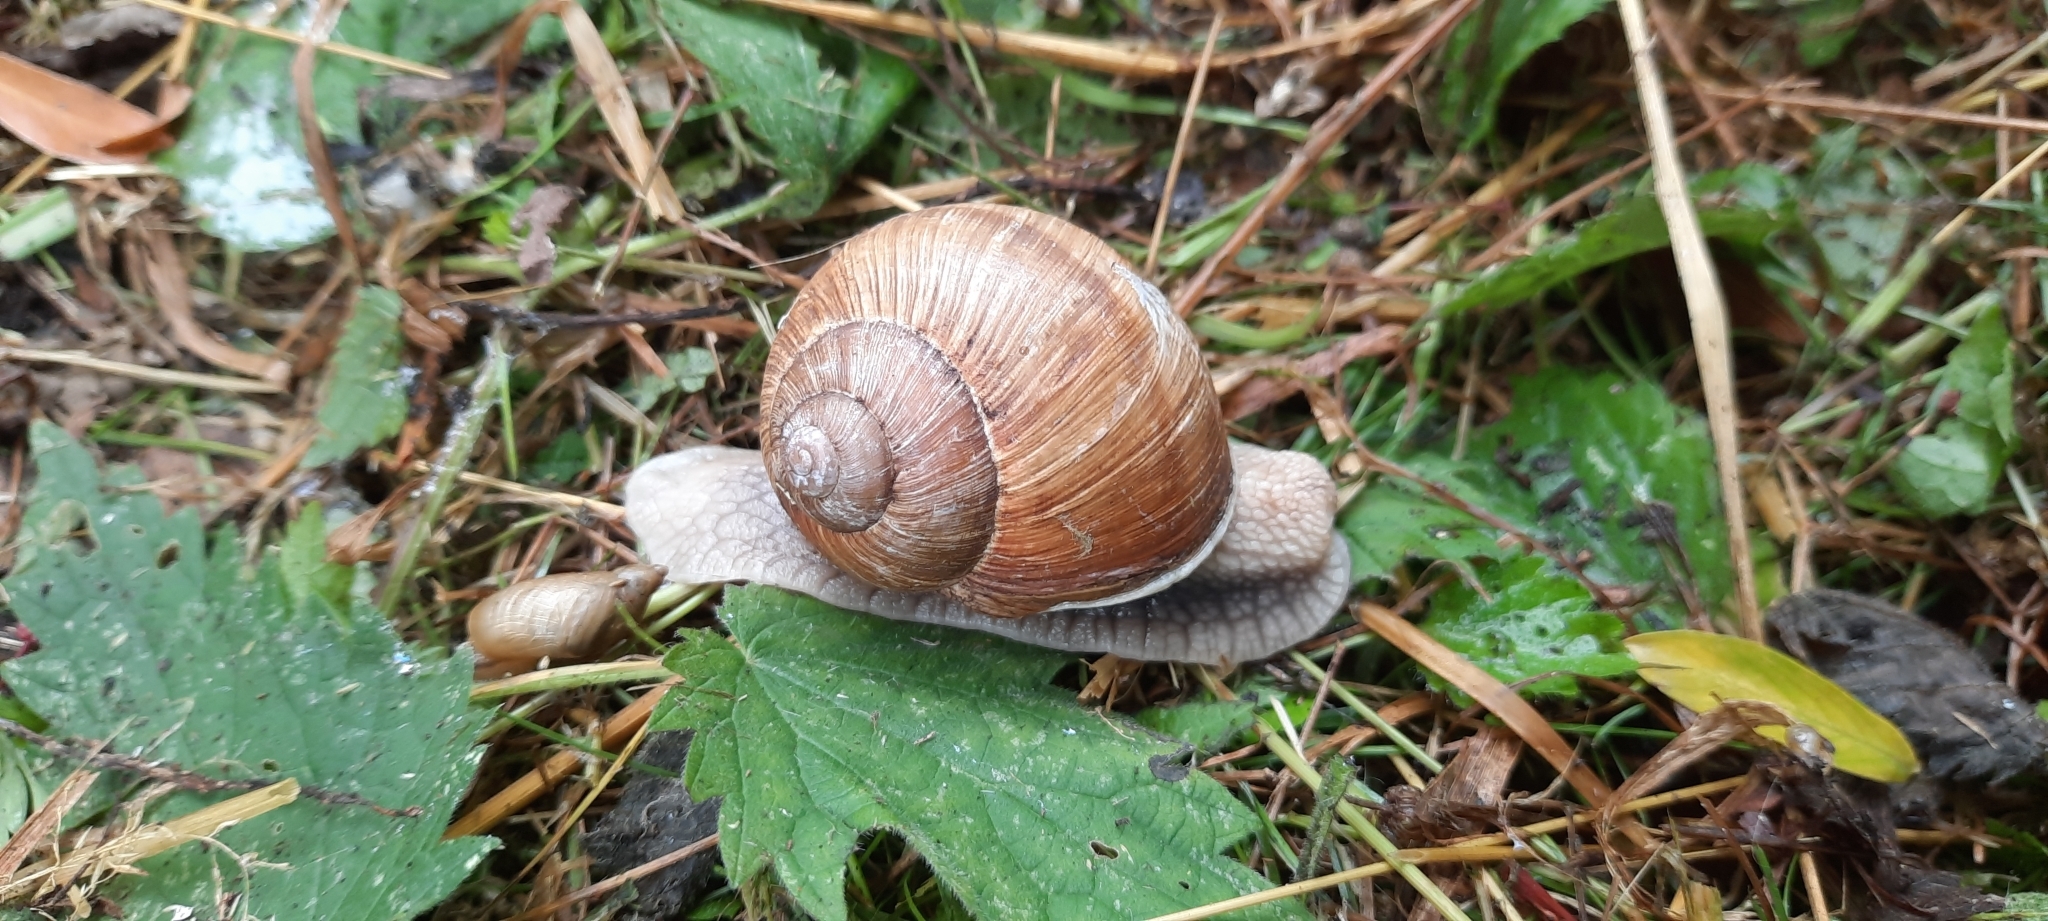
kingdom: Animalia
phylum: Mollusca
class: Gastropoda
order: Stylommatophora
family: Helicidae
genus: Helix
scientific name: Helix pomatia
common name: Roman snail
